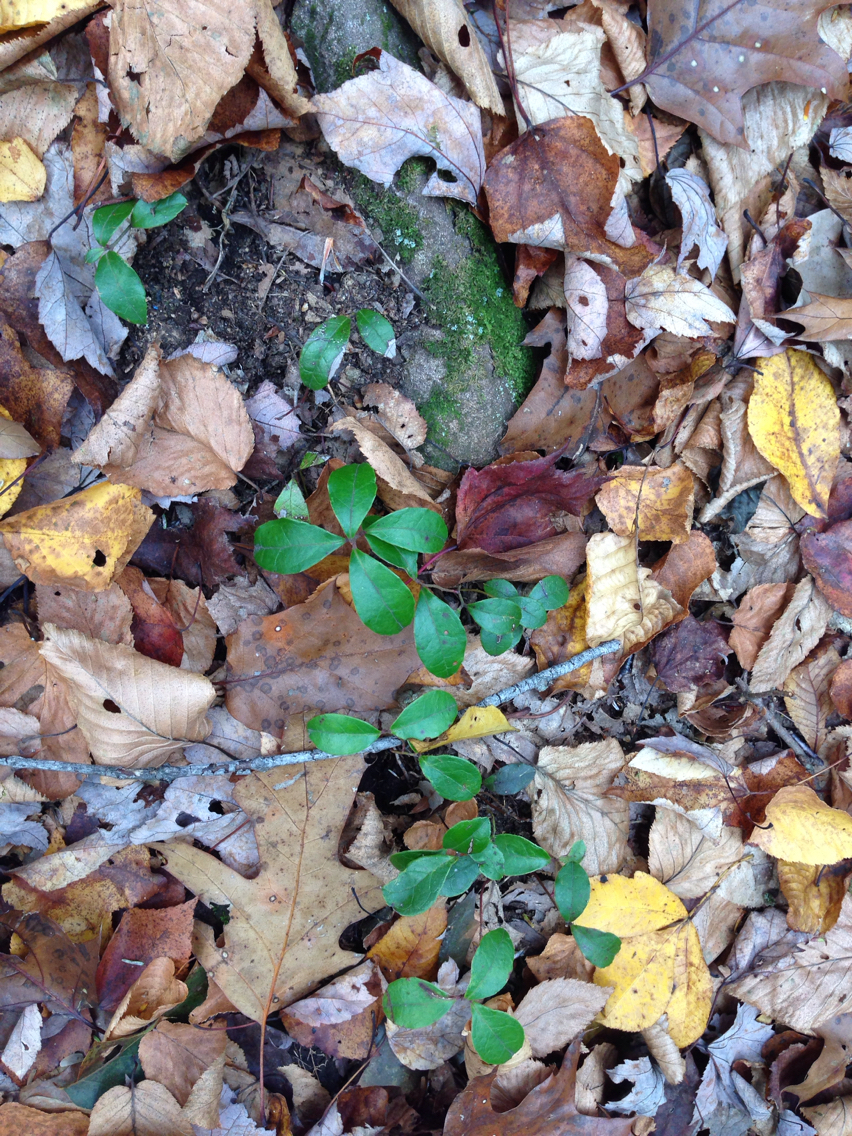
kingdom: Plantae
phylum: Tracheophyta
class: Magnoliopsida
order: Ericales
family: Ericaceae
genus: Gaultheria
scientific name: Gaultheria procumbens
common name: Checkerberry
